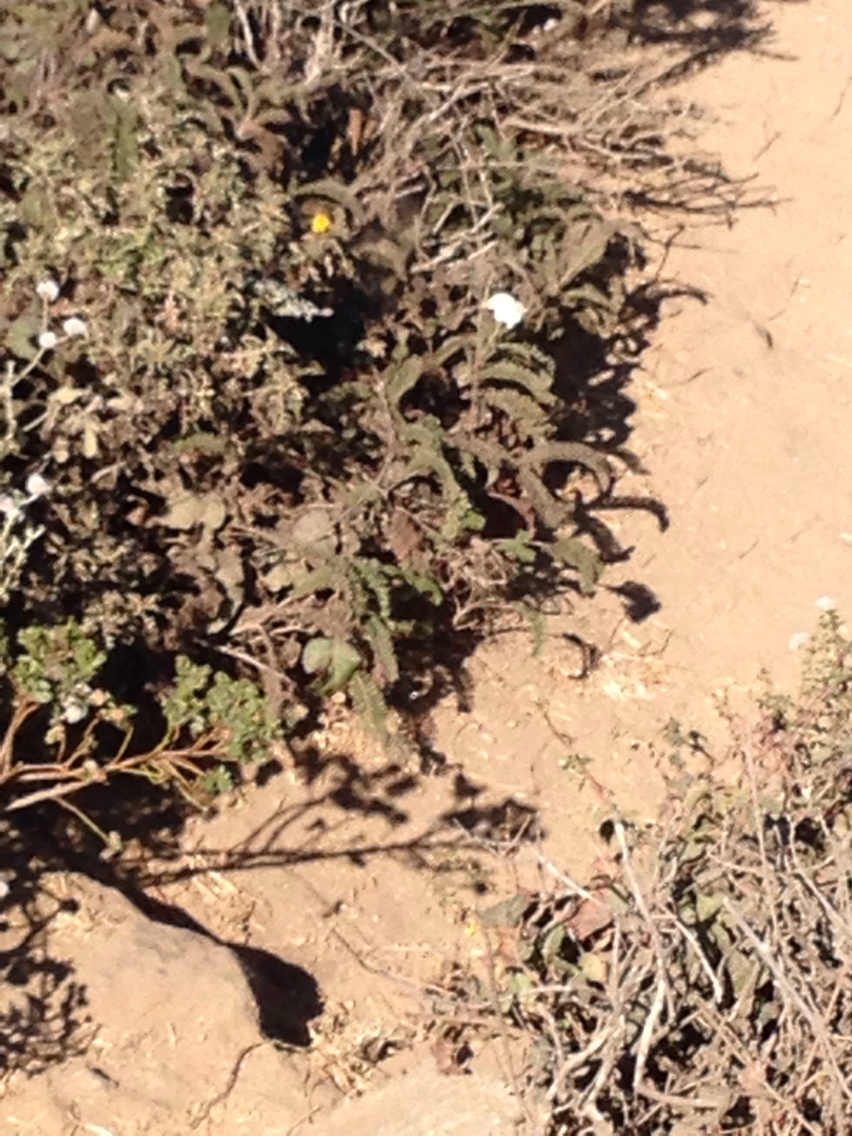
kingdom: Plantae
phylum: Tracheophyta
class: Magnoliopsida
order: Asterales
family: Asteraceae
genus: Achillea
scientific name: Achillea millefolium
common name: Yarrow
